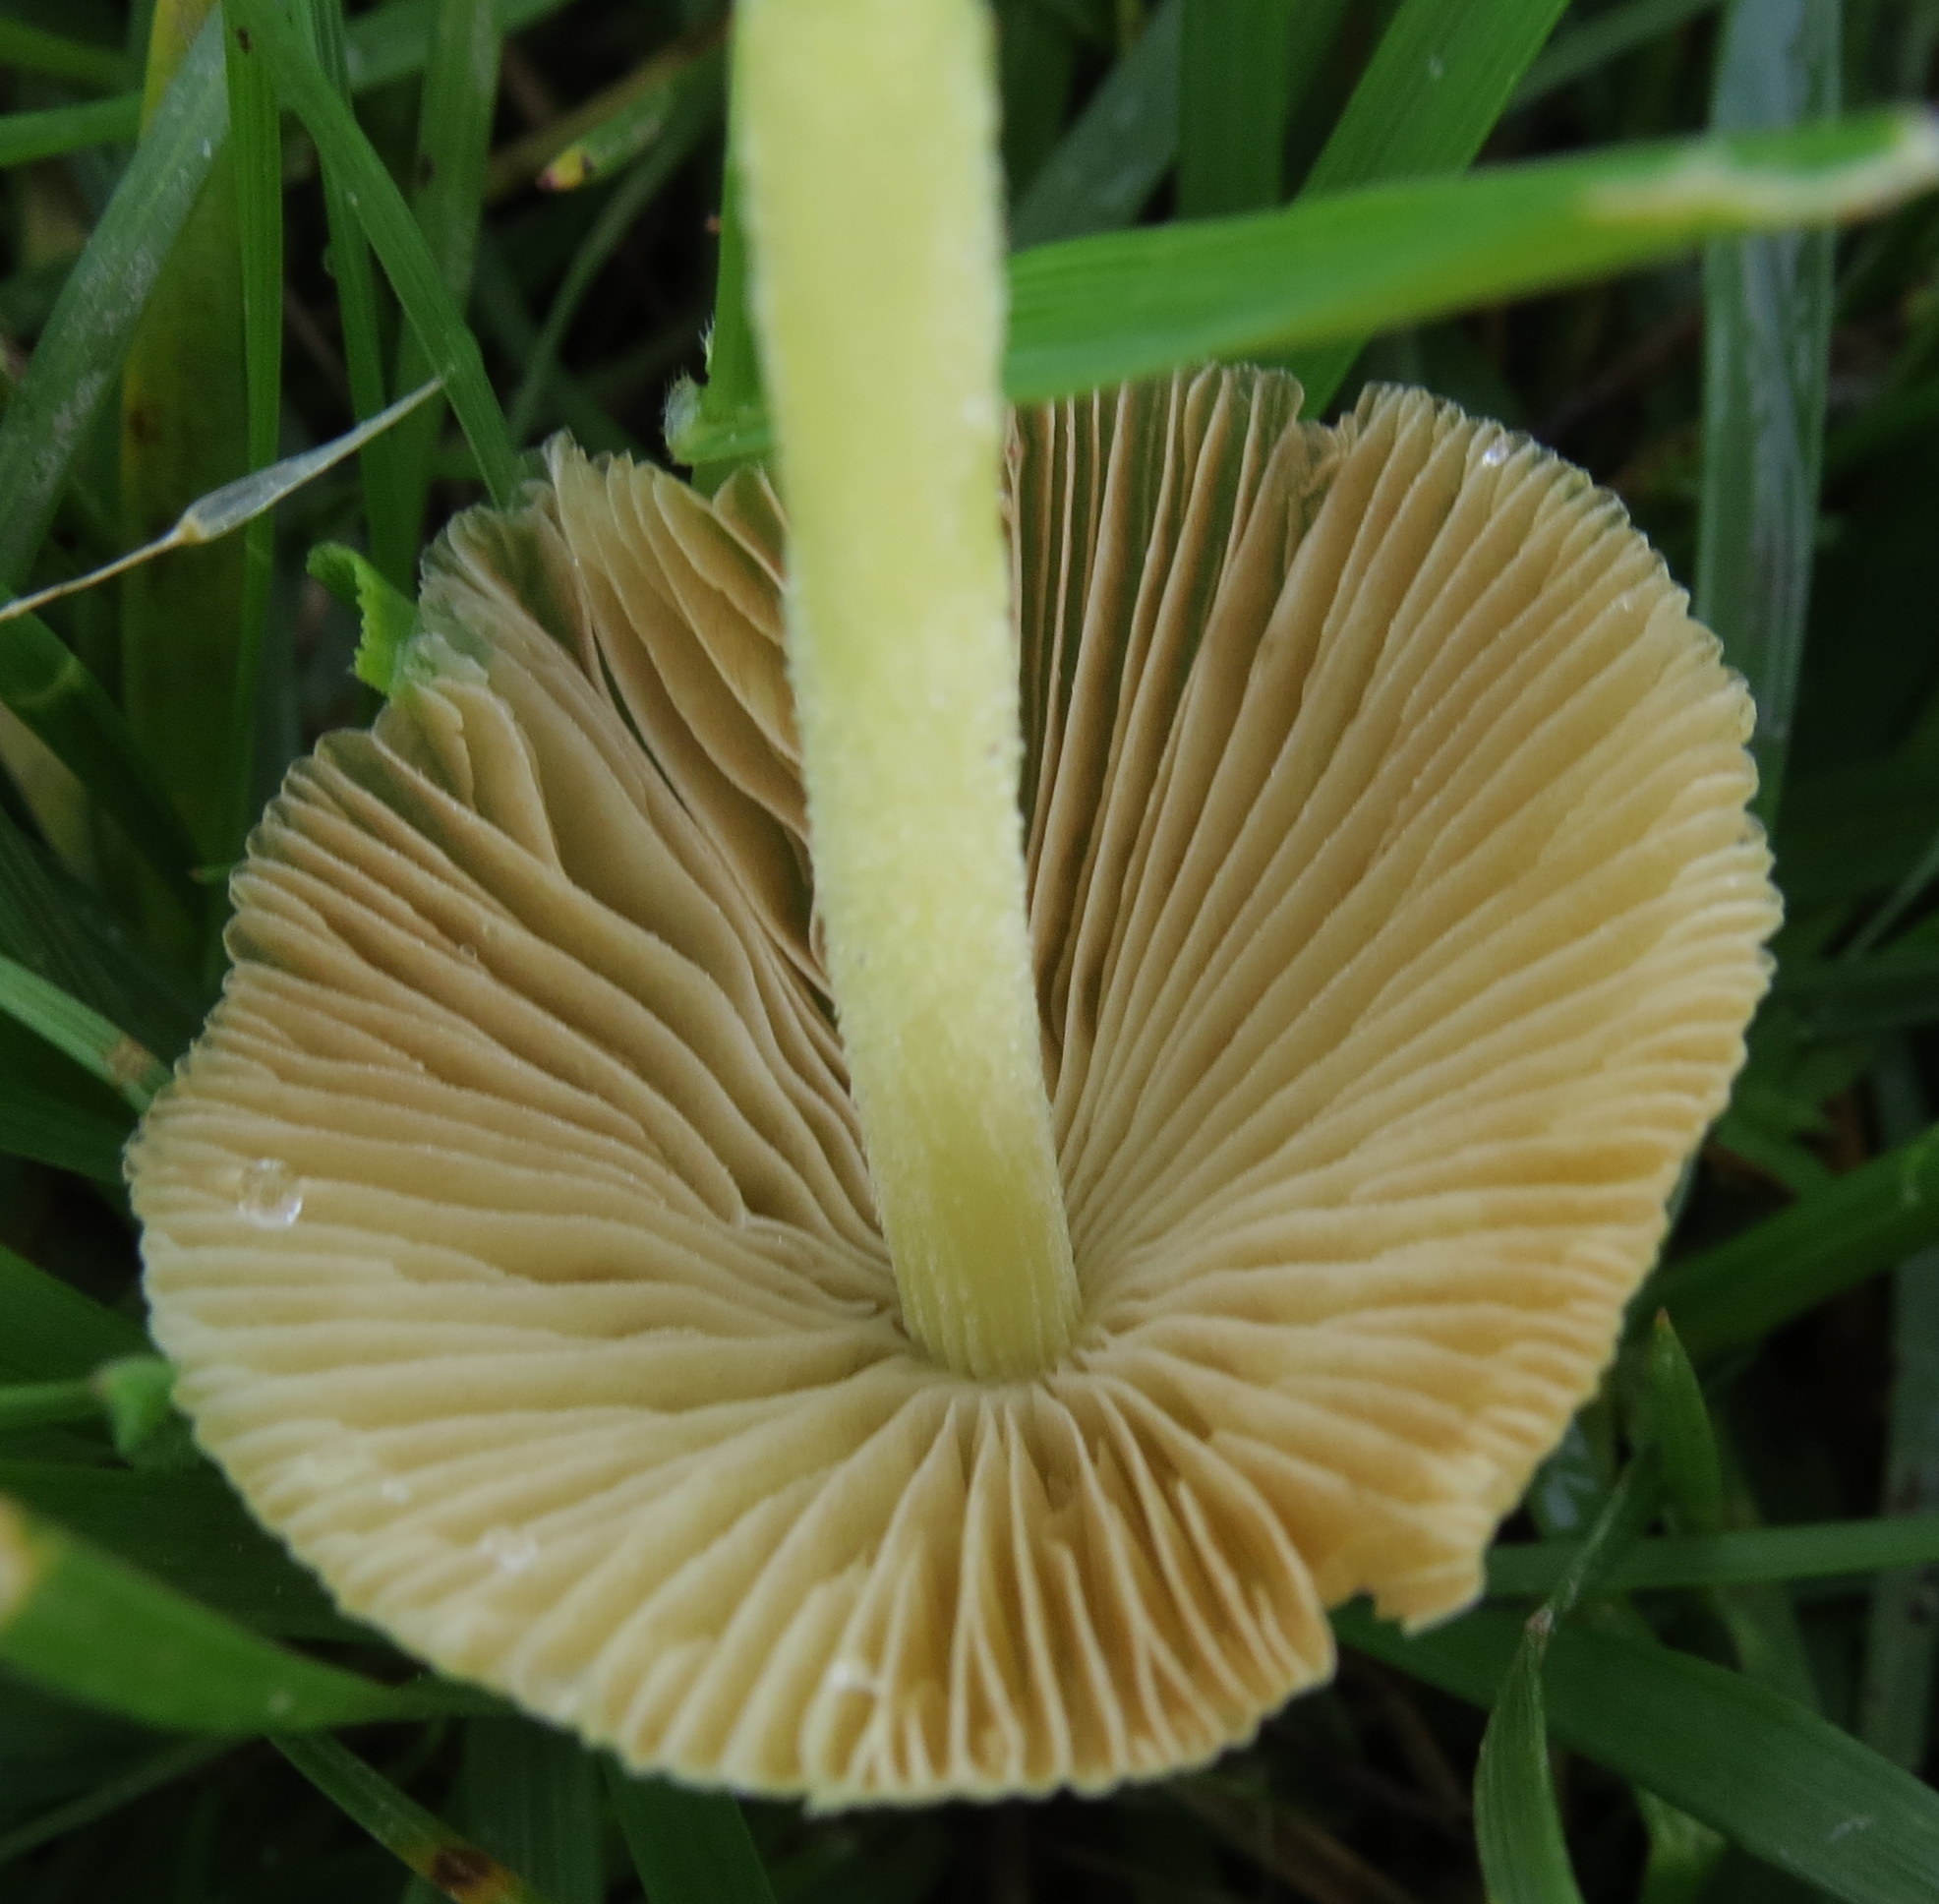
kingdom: Fungi
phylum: Basidiomycota
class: Agaricomycetes
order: Agaricales
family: Bolbitiaceae
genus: Bolbitius
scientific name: Bolbitius titubans
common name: Yellow fieldcap
